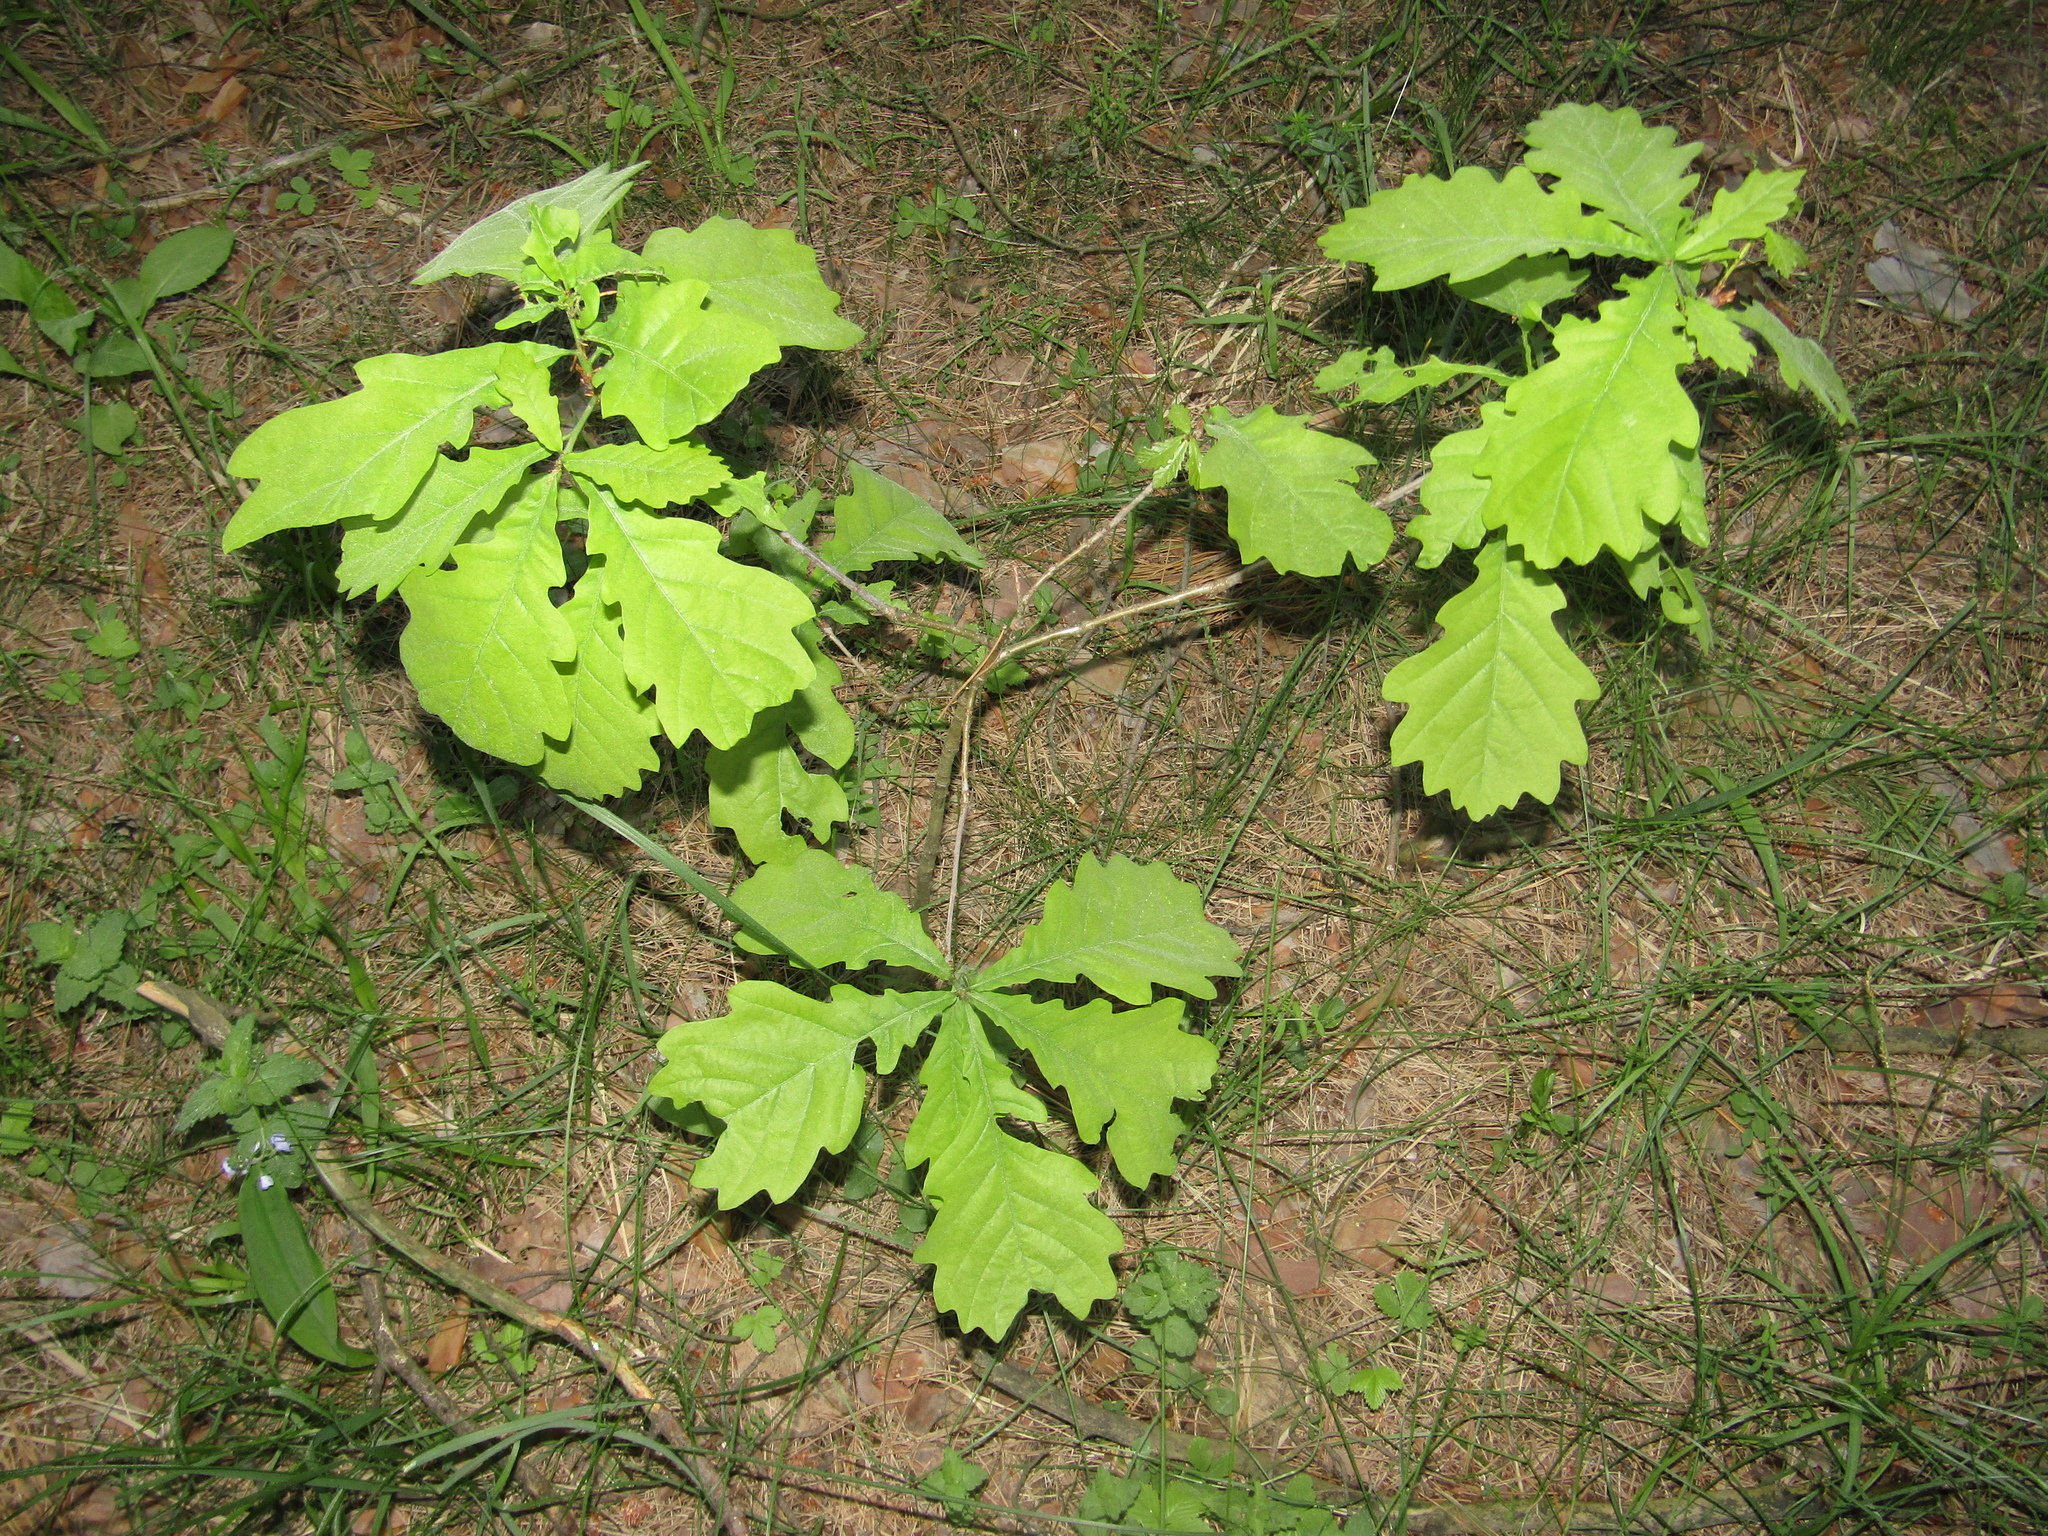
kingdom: Plantae
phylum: Tracheophyta
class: Magnoliopsida
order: Fagales
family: Fagaceae
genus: Quercus
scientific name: Quercus robur
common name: Pedunculate oak
